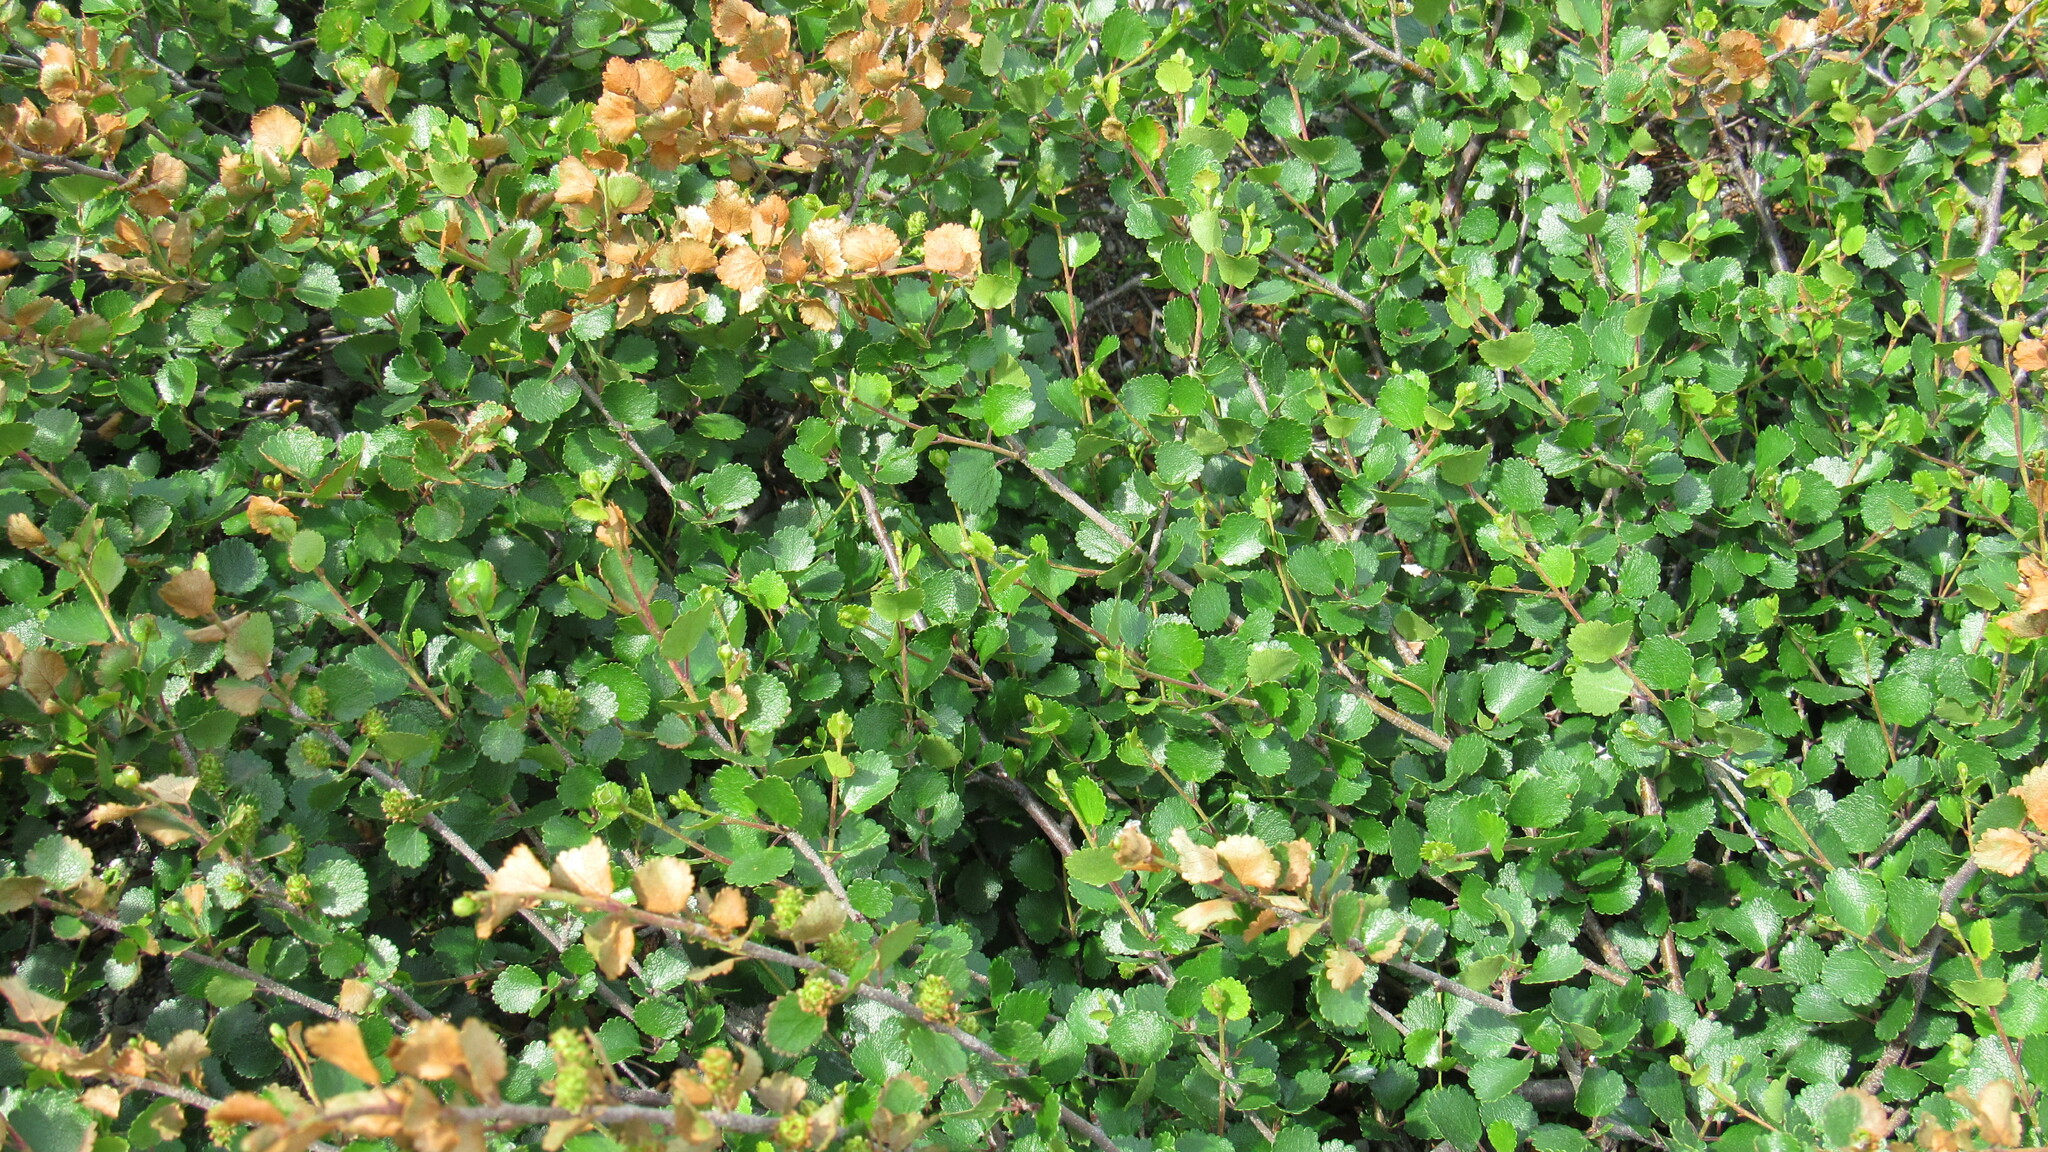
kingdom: Plantae
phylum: Tracheophyta
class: Magnoliopsida
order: Fagales
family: Betulaceae
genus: Betula
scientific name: Betula nana
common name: Arctic dwarf birch
